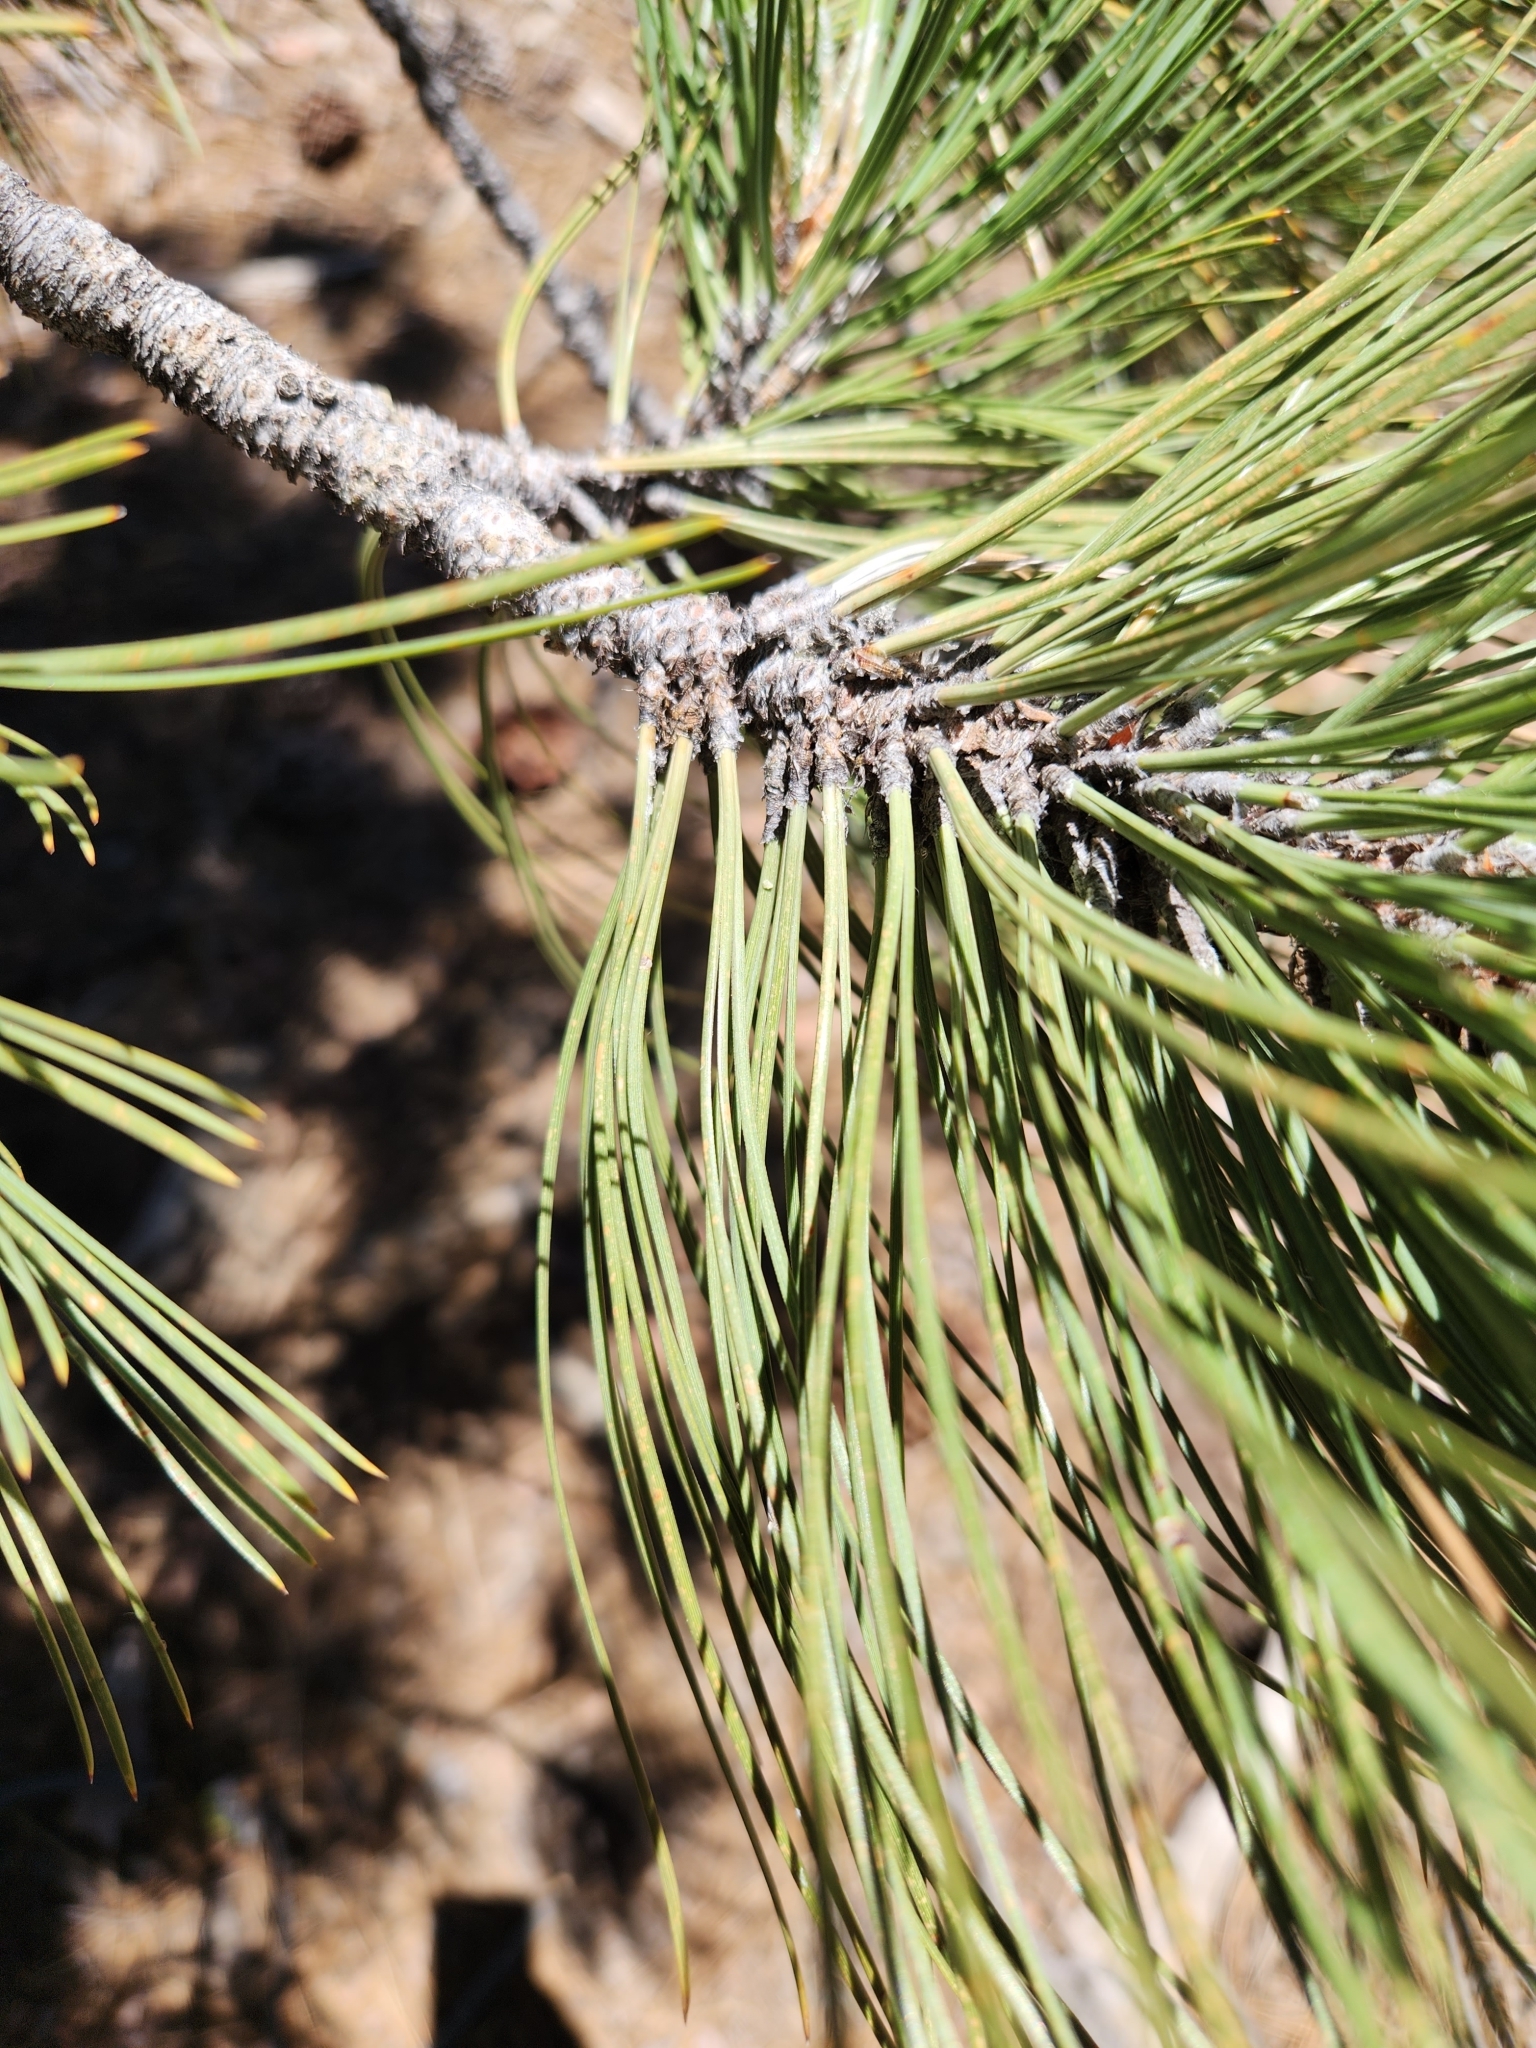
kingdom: Plantae
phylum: Tracheophyta
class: Pinopsida
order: Pinales
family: Pinaceae
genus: Pinus
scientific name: Pinus jeffreyi
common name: Jeffrey pine
